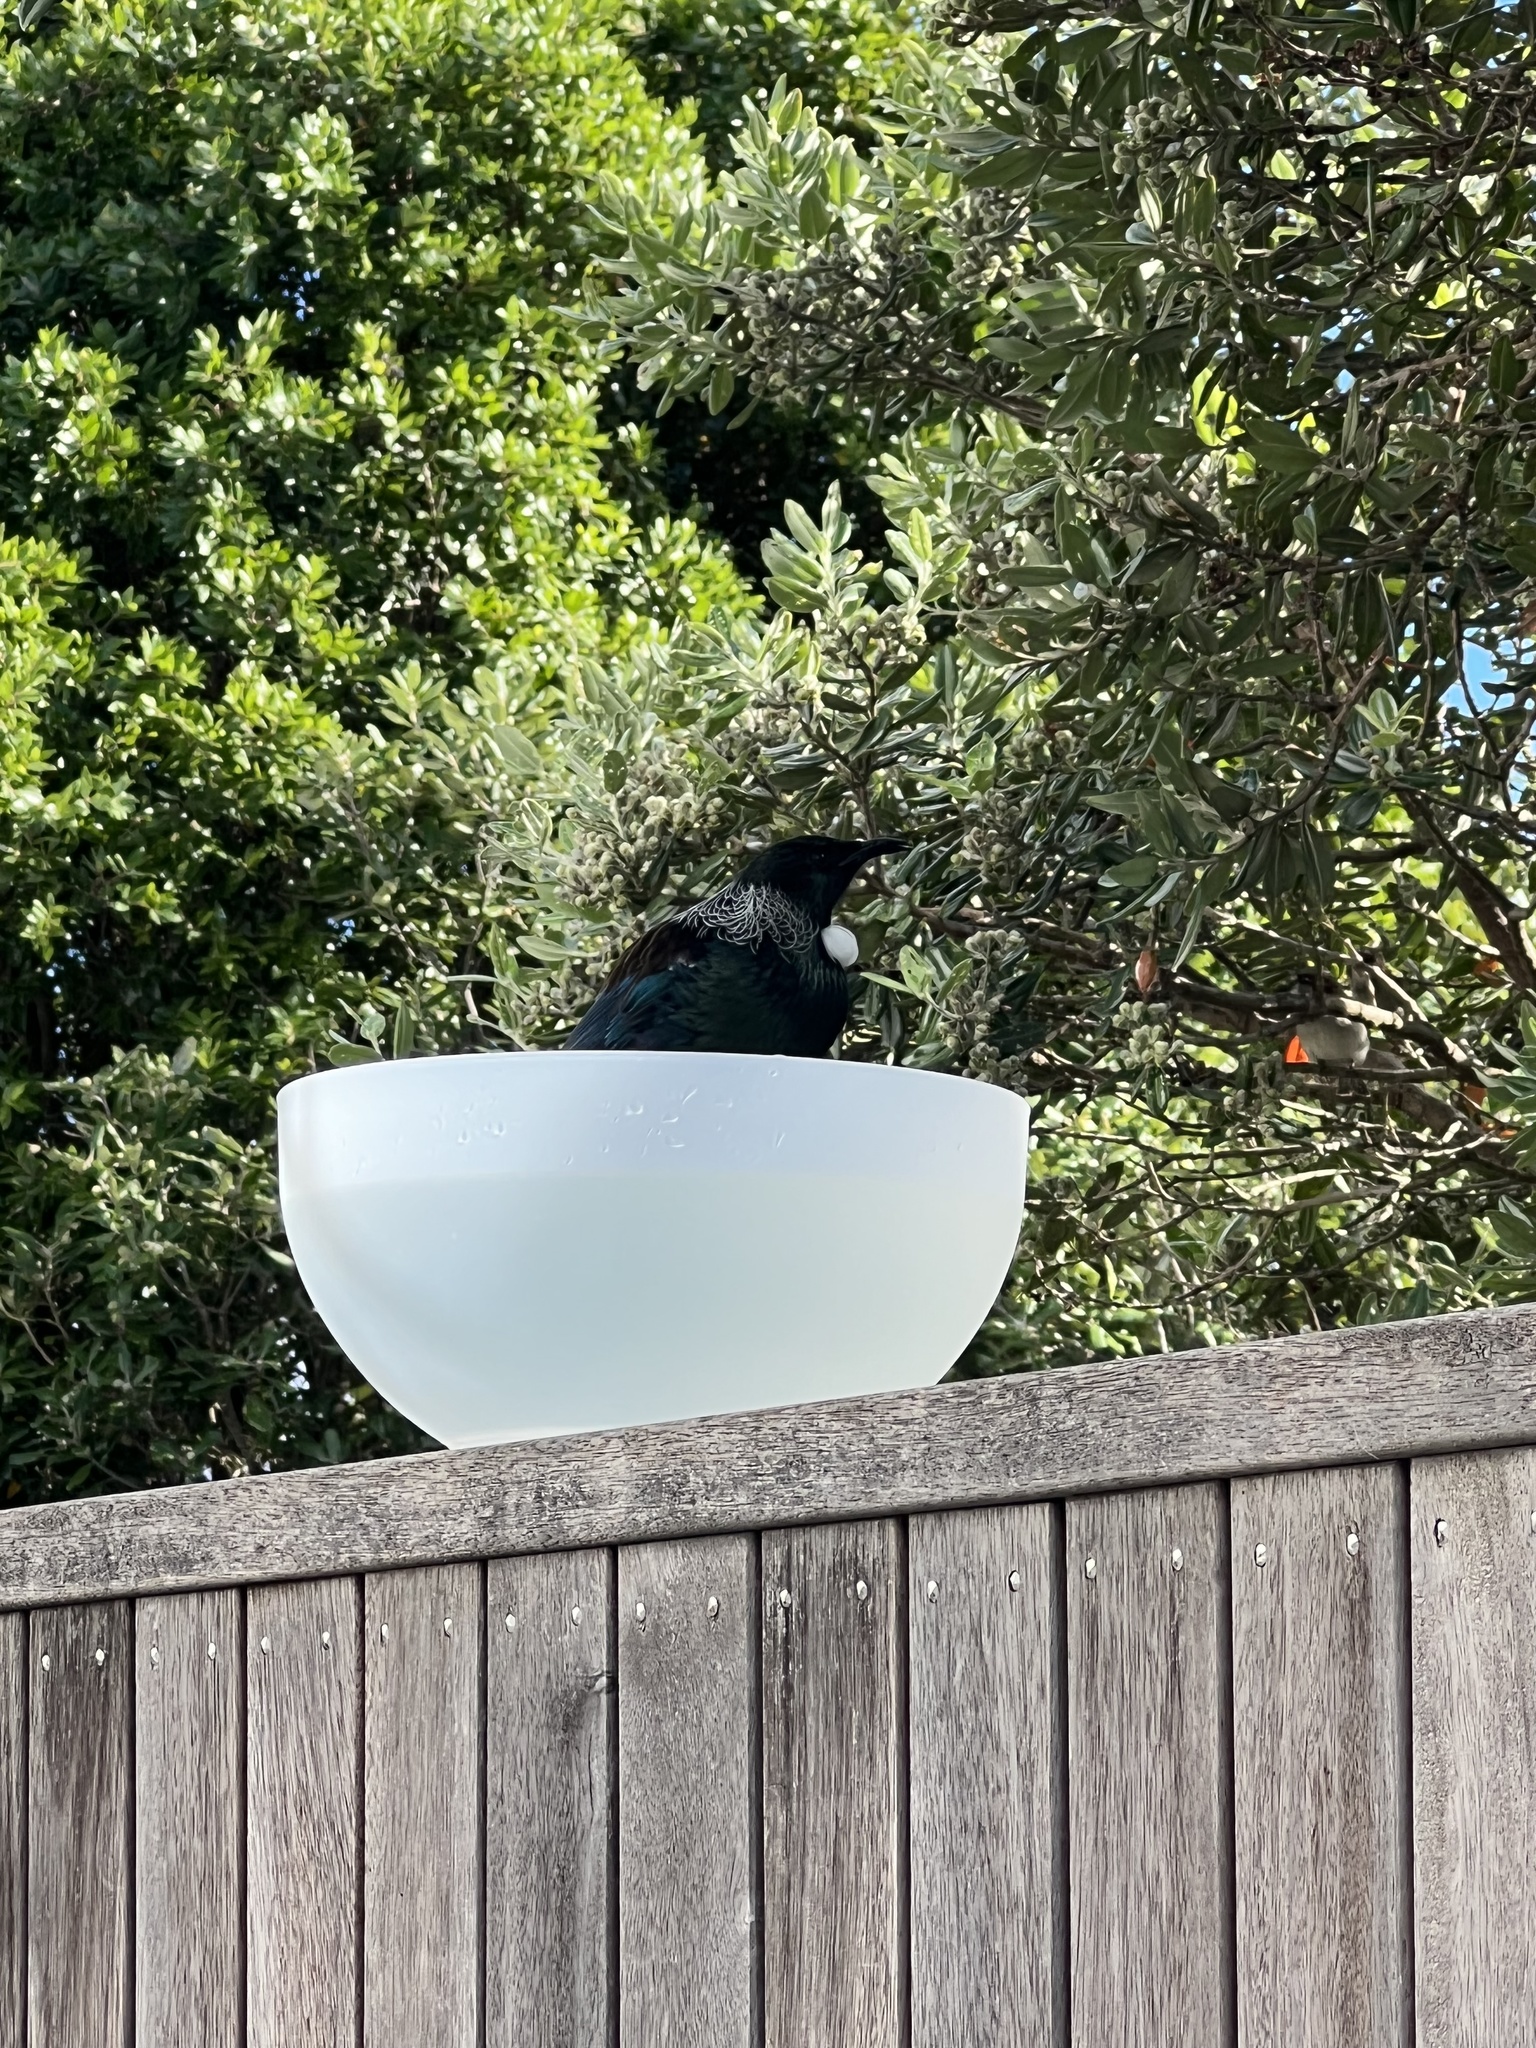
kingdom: Animalia
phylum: Chordata
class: Aves
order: Passeriformes
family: Meliphagidae
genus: Prosthemadera
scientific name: Prosthemadera novaeseelandiae
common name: Tui
